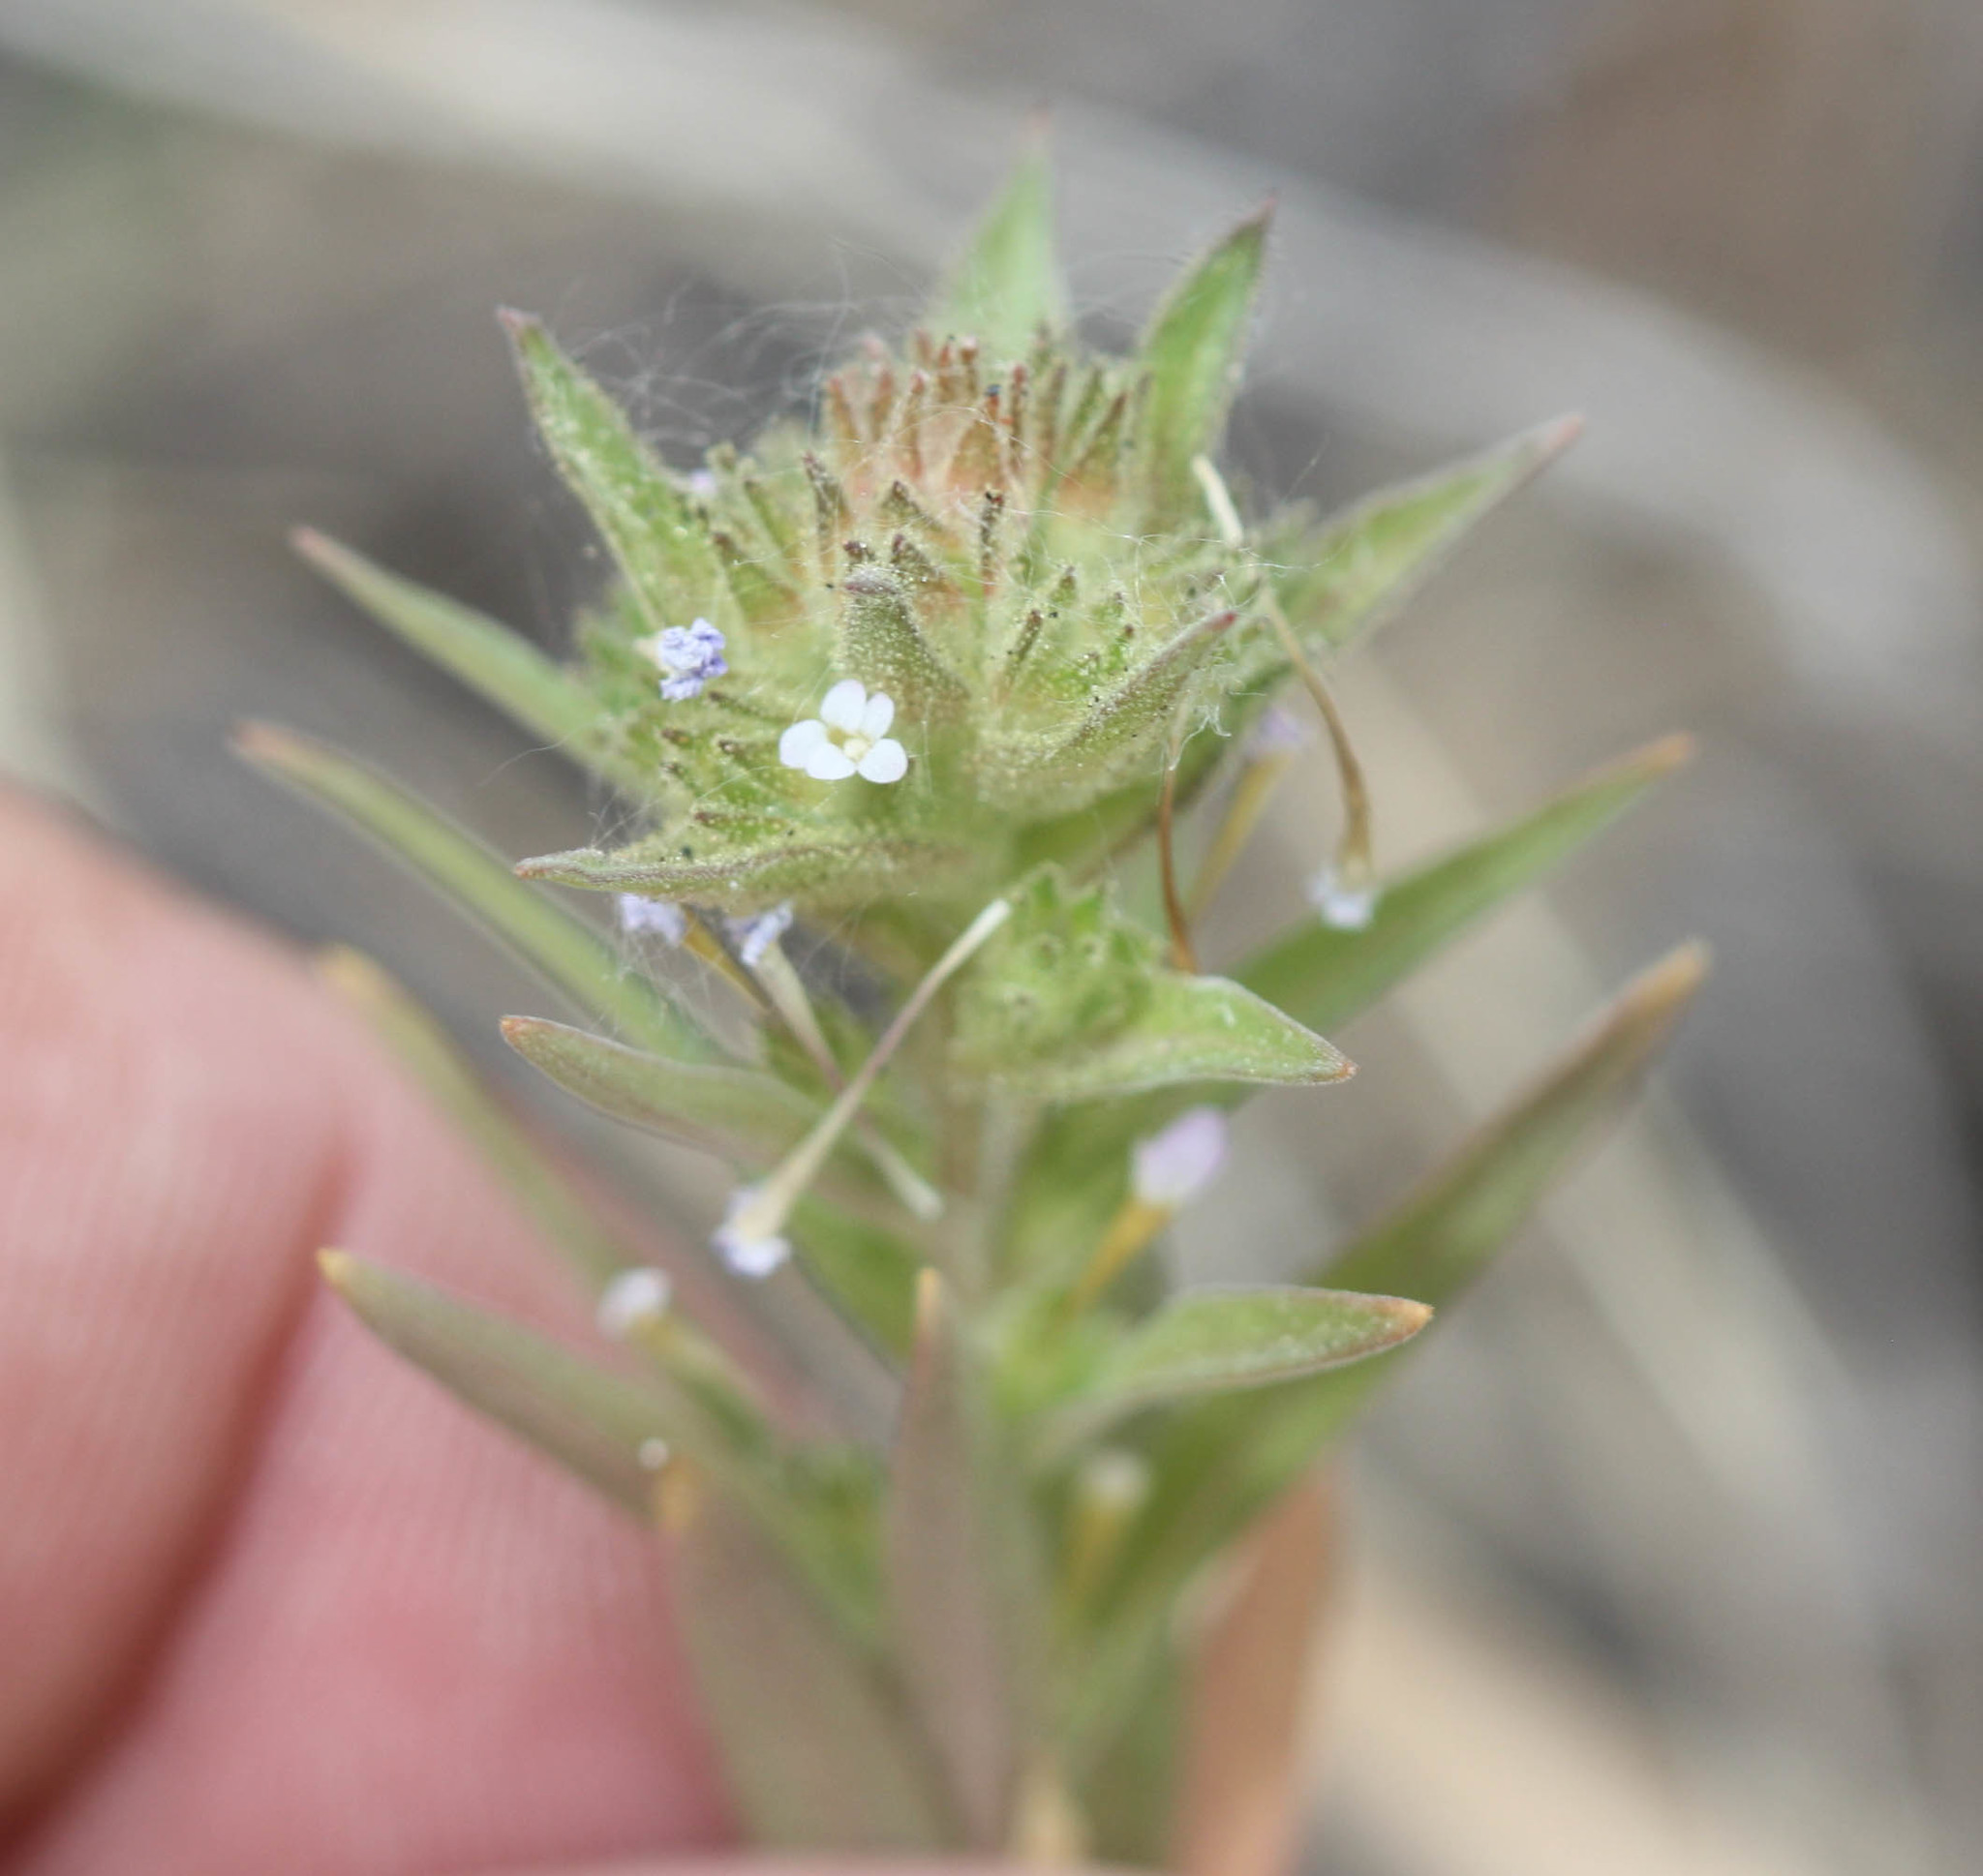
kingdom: Plantae
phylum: Tracheophyta
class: Magnoliopsida
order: Ericales
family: Polemoniaceae
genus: Collomia
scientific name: Collomia linearis
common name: Tiny trumpet
